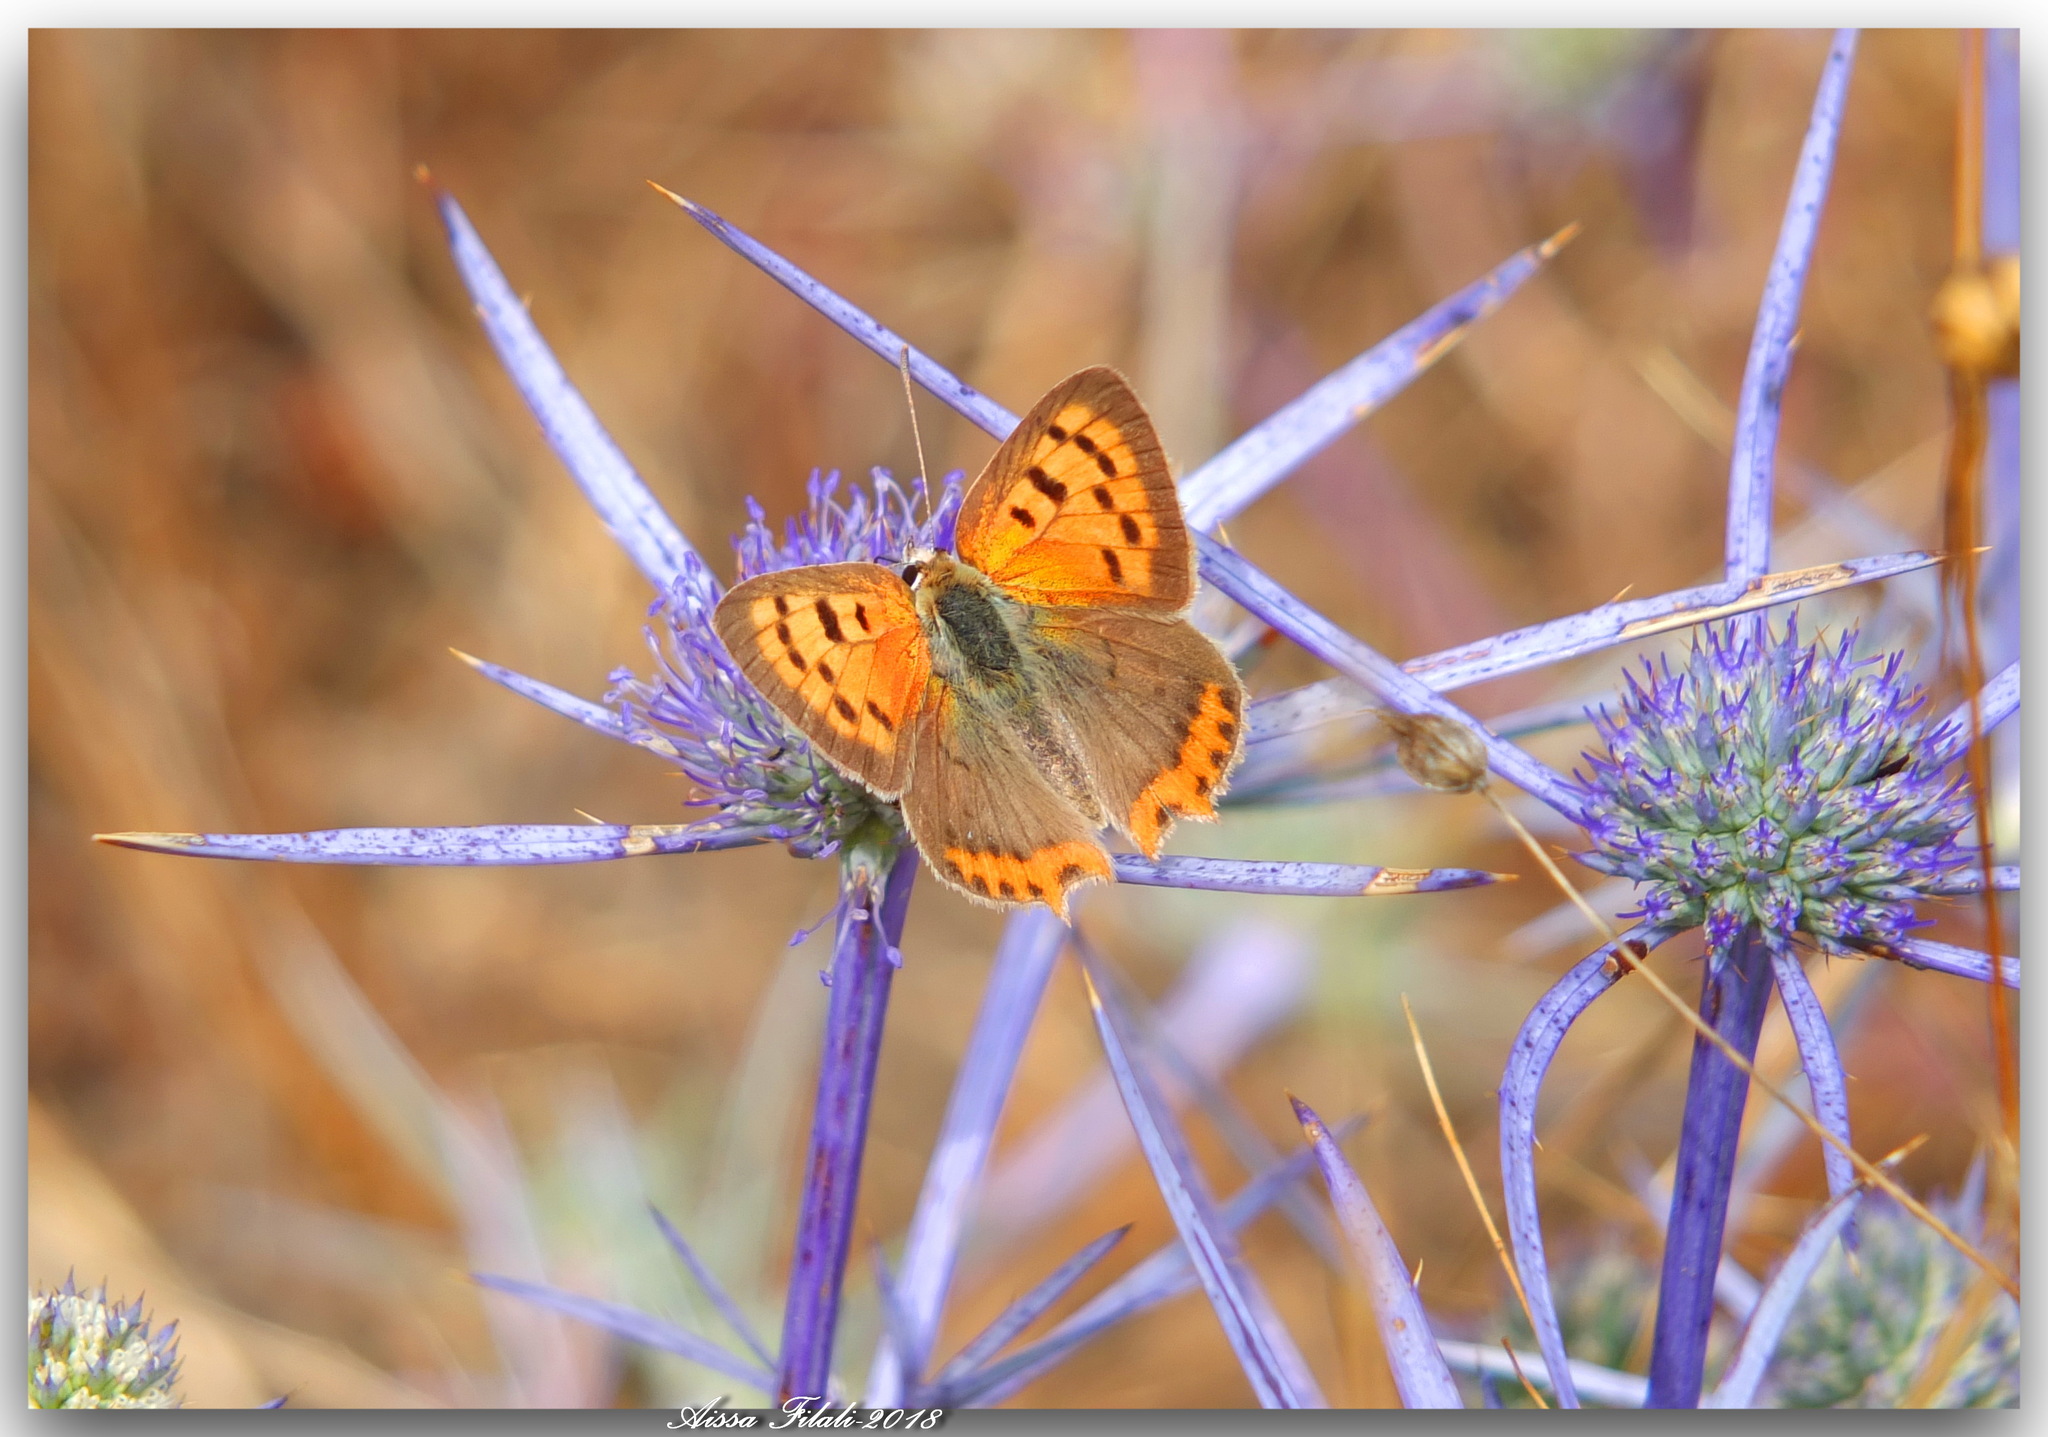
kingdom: Animalia
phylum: Arthropoda
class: Insecta
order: Lepidoptera
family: Lycaenidae
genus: Lycaena
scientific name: Lycaena phlaeas
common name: Small copper
